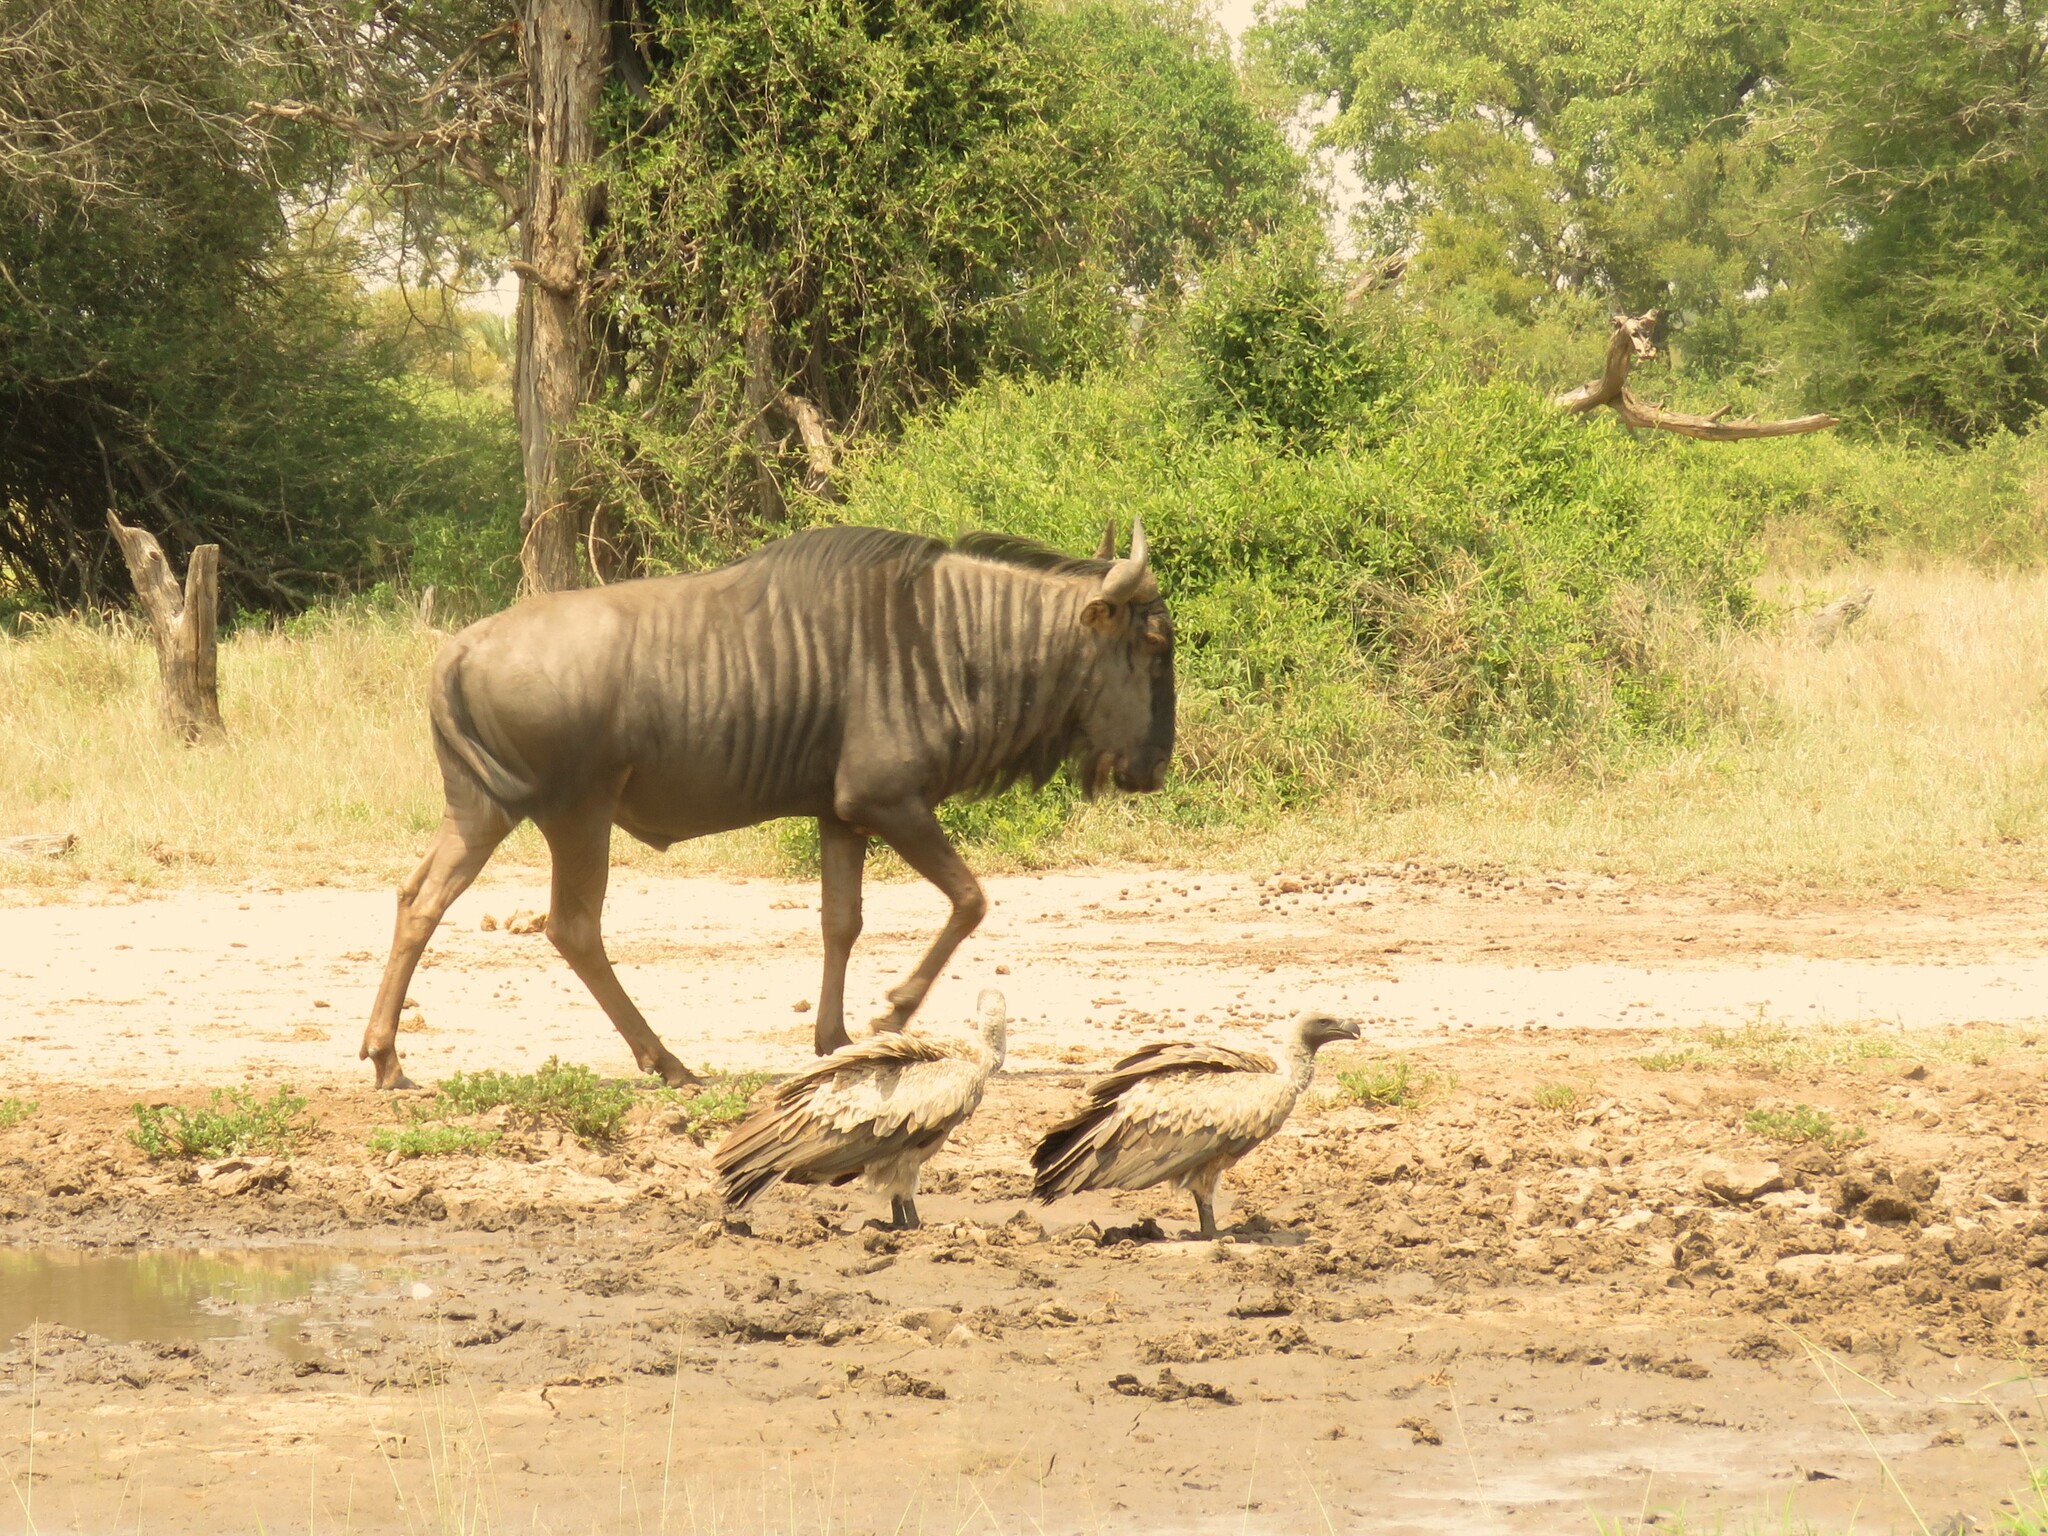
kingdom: Animalia
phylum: Chordata
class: Mammalia
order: Artiodactyla
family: Bovidae
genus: Connochaetes
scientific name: Connochaetes taurinus
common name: Blue wildebeest
